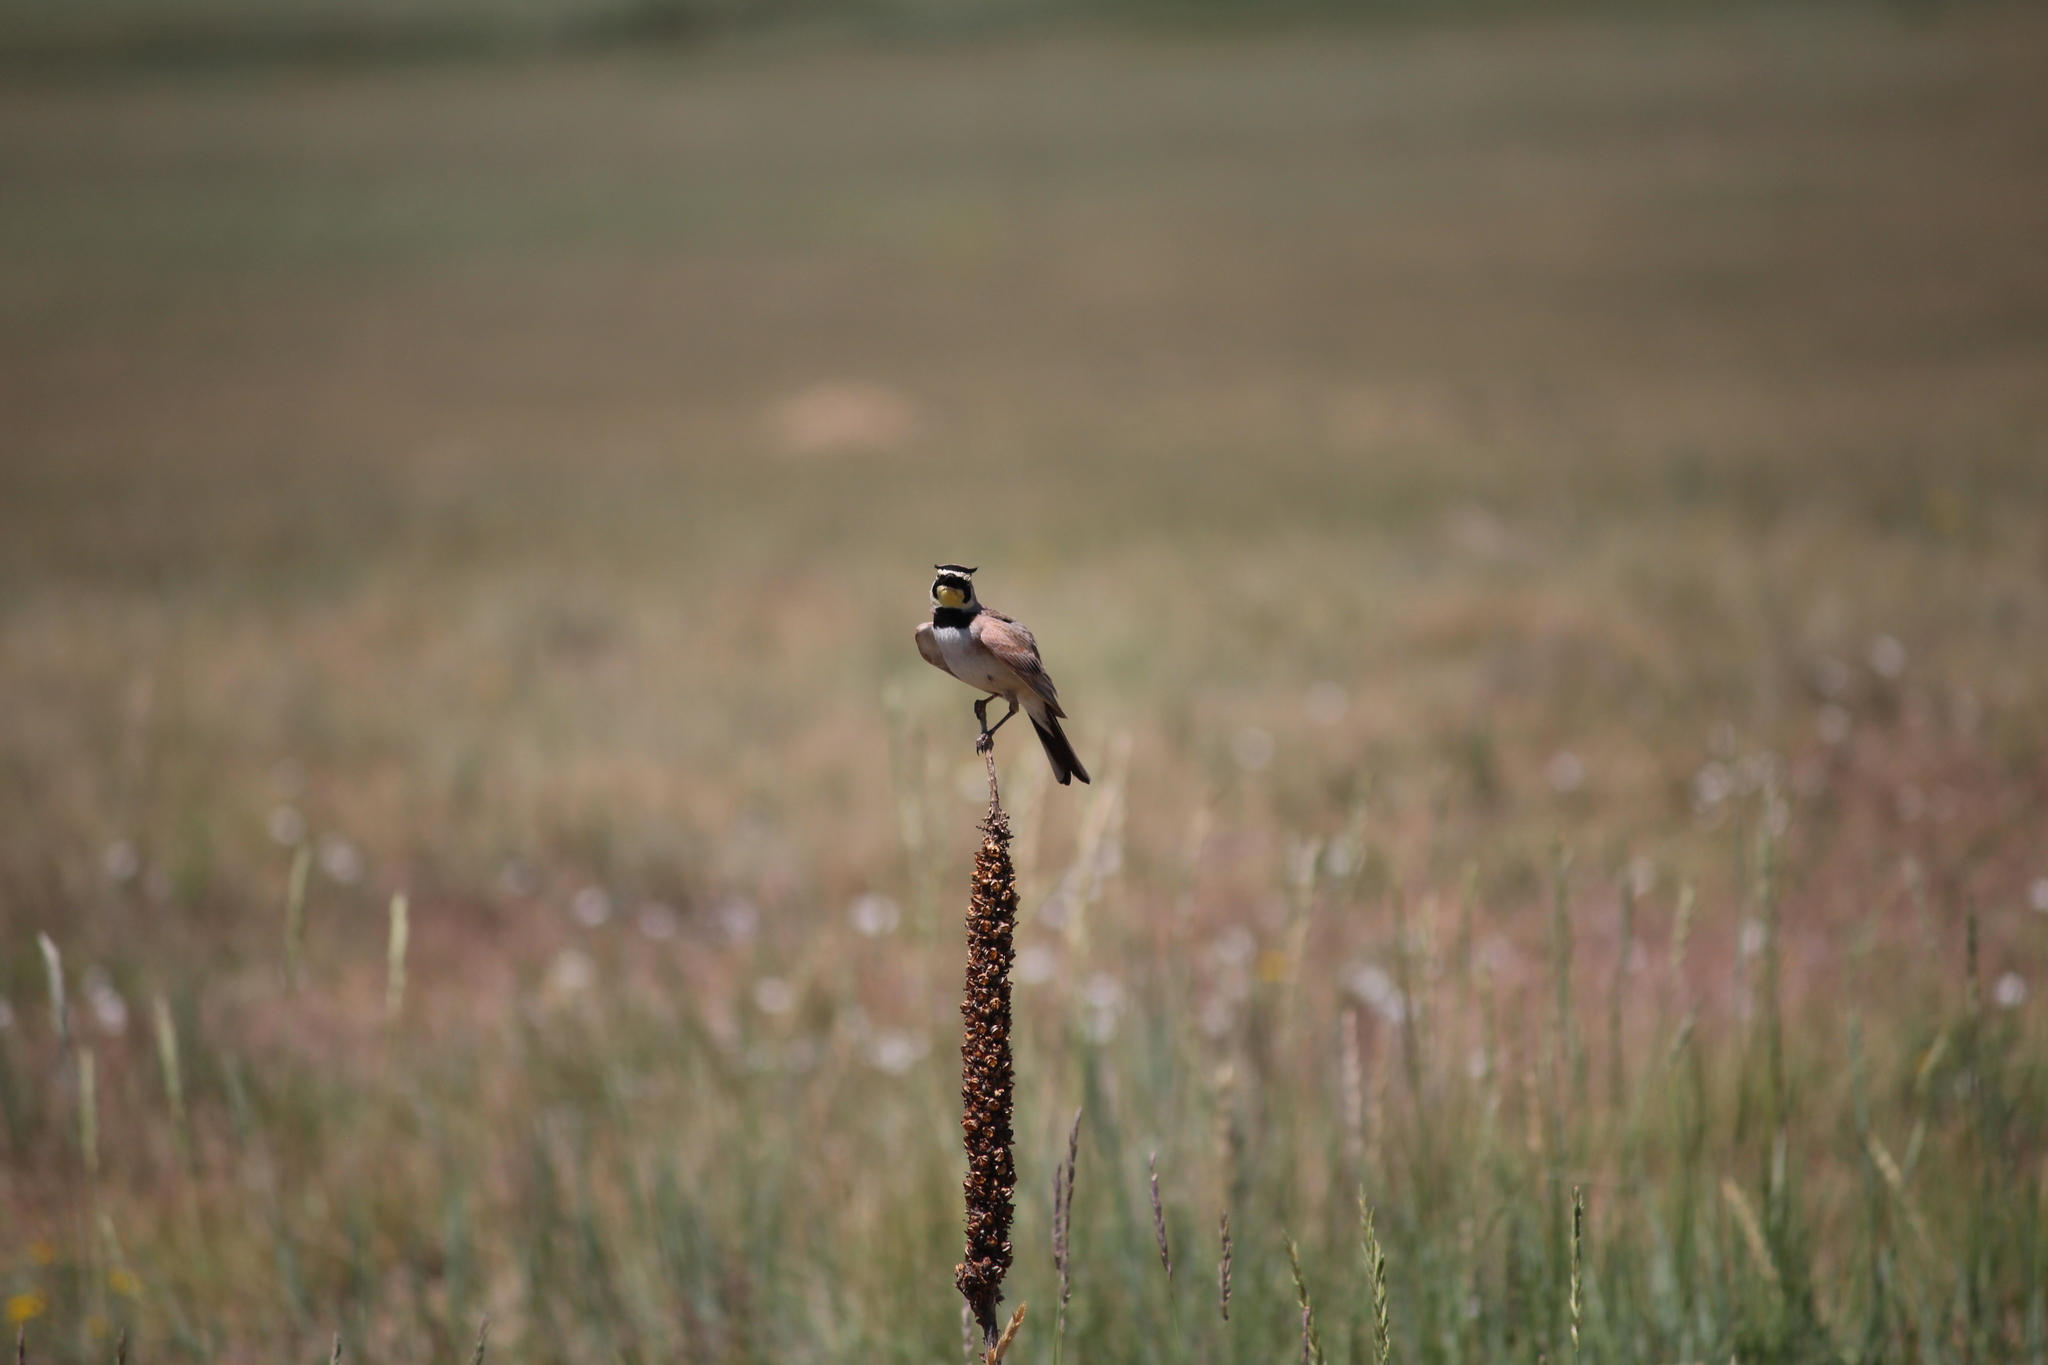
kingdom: Animalia
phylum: Chordata
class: Aves
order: Passeriformes
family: Alaudidae
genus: Eremophila
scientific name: Eremophila alpestris
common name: Horned lark
